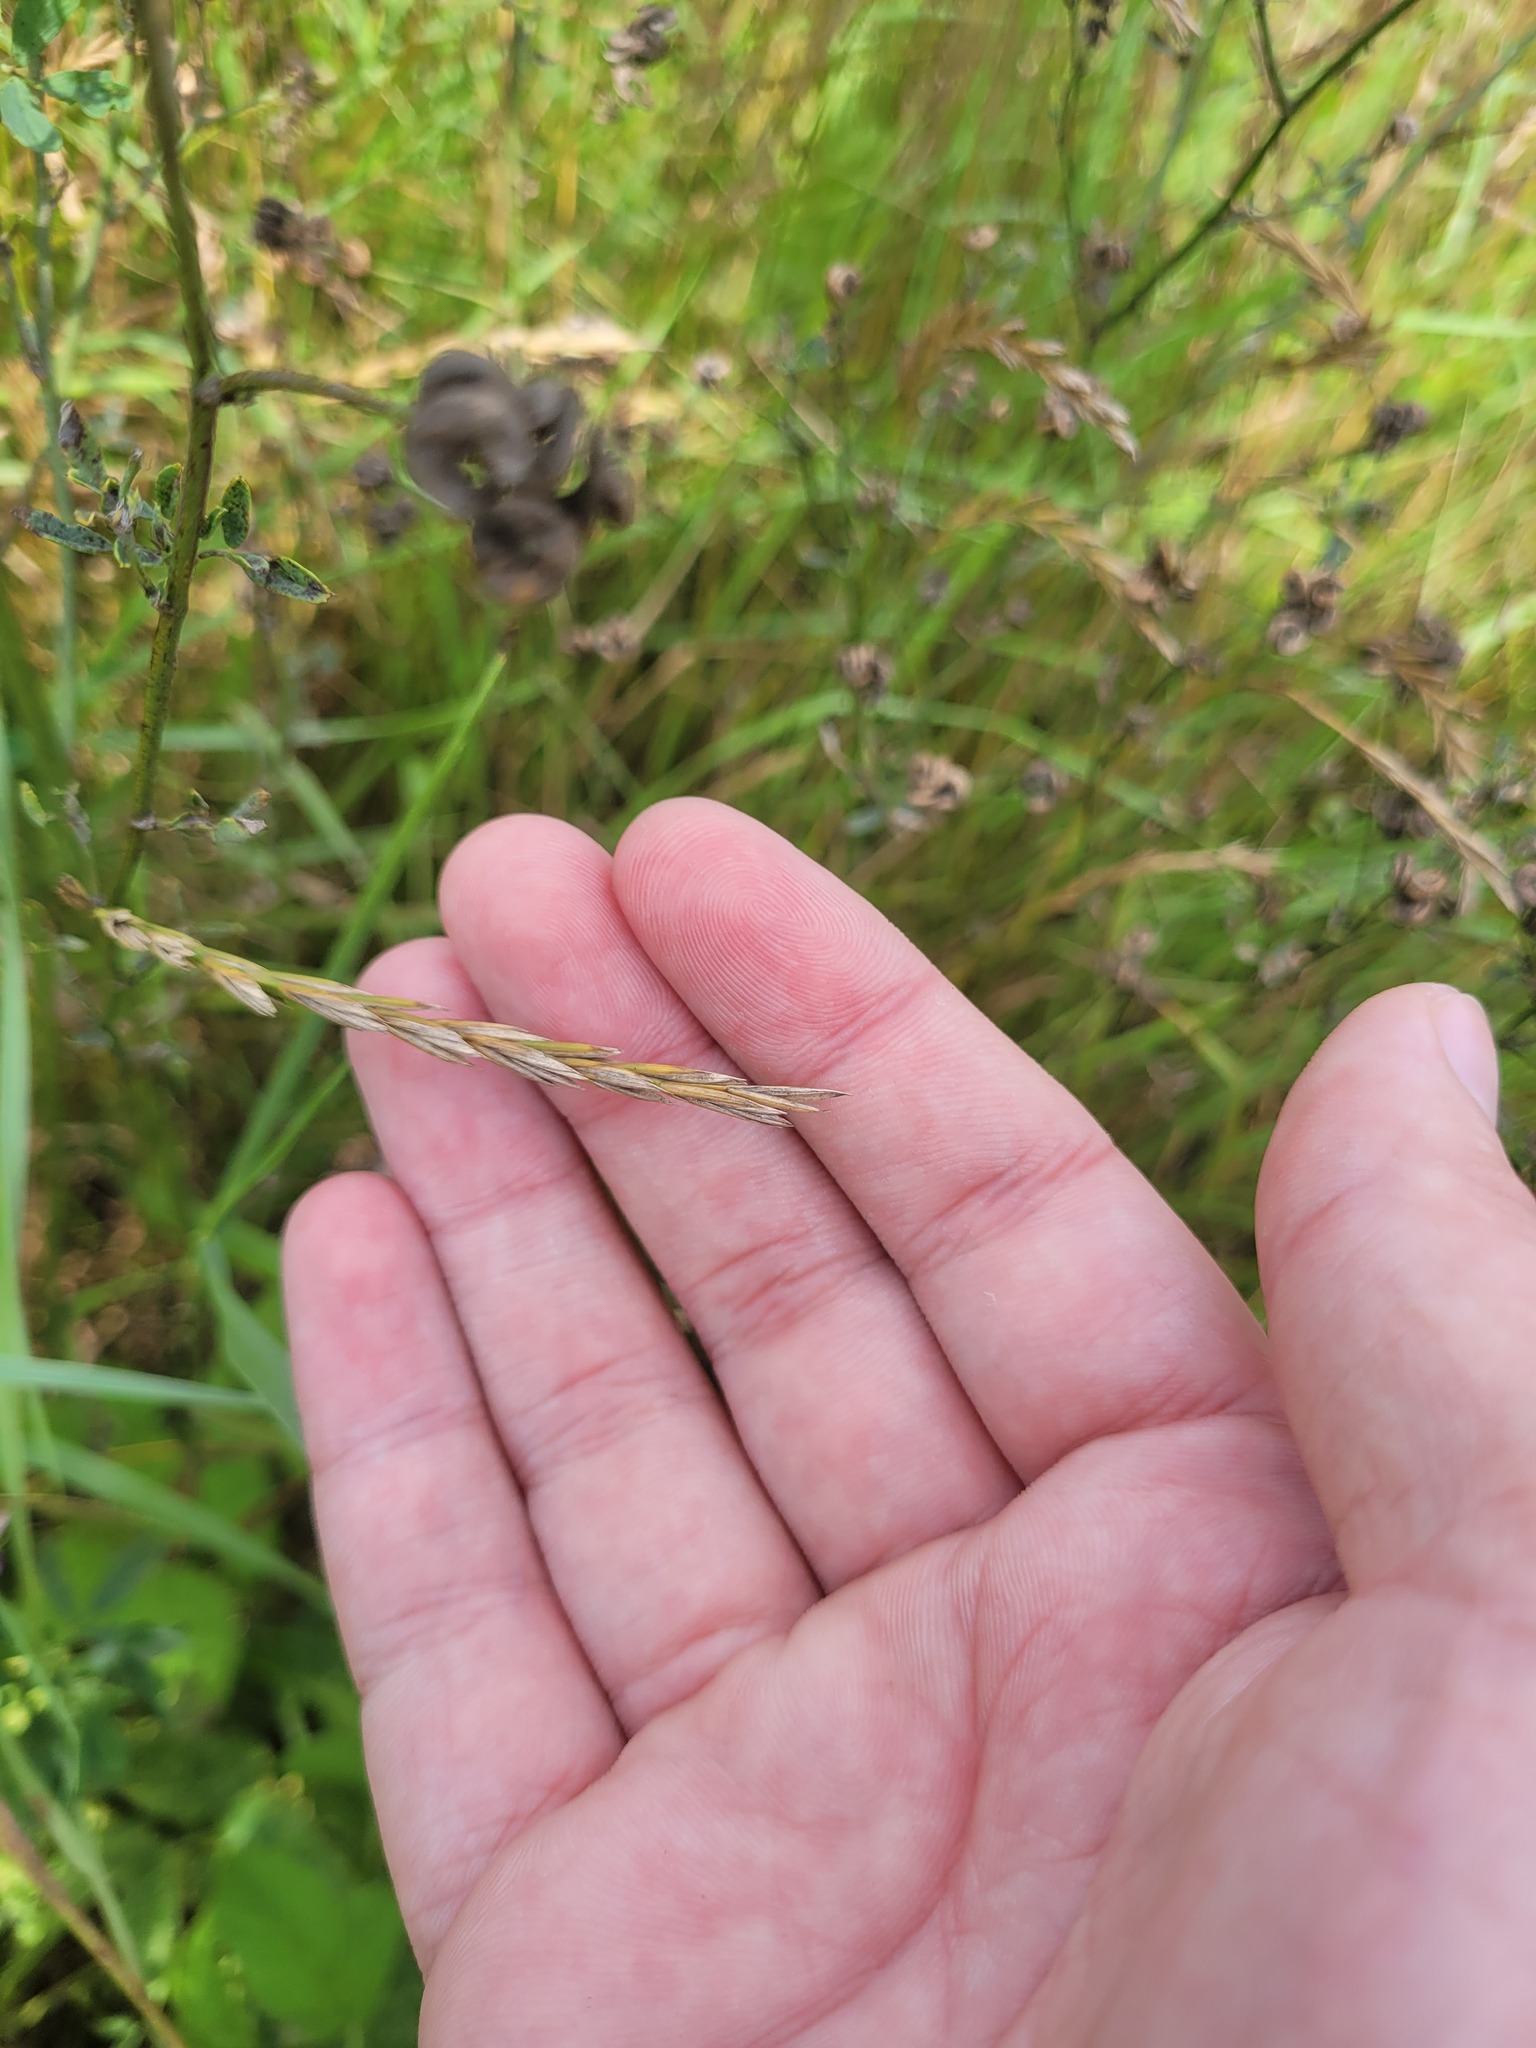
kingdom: Plantae
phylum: Tracheophyta
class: Liliopsida
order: Poales
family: Poaceae
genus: Elymus
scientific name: Elymus repens
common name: Quackgrass
